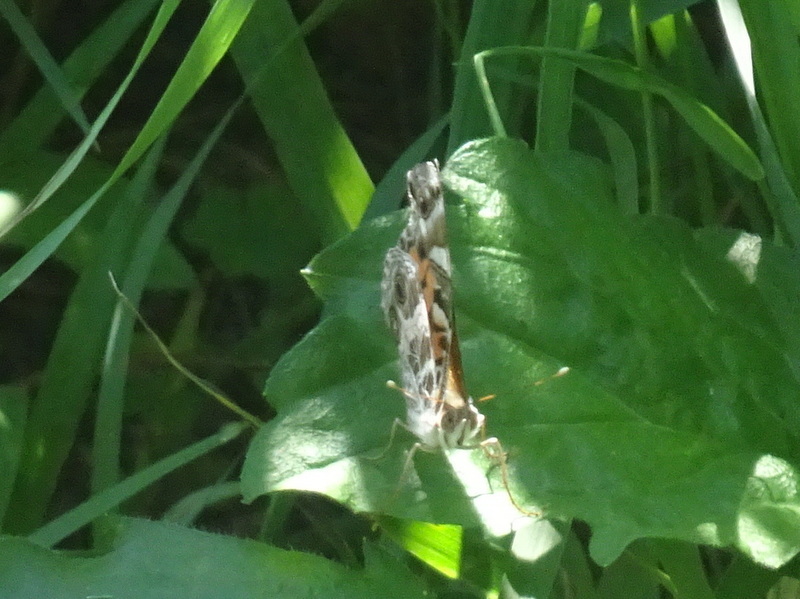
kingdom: Animalia
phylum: Arthropoda
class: Insecta
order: Lepidoptera
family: Nymphalidae
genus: Vanessa
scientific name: Vanessa virginiensis
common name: American lady
